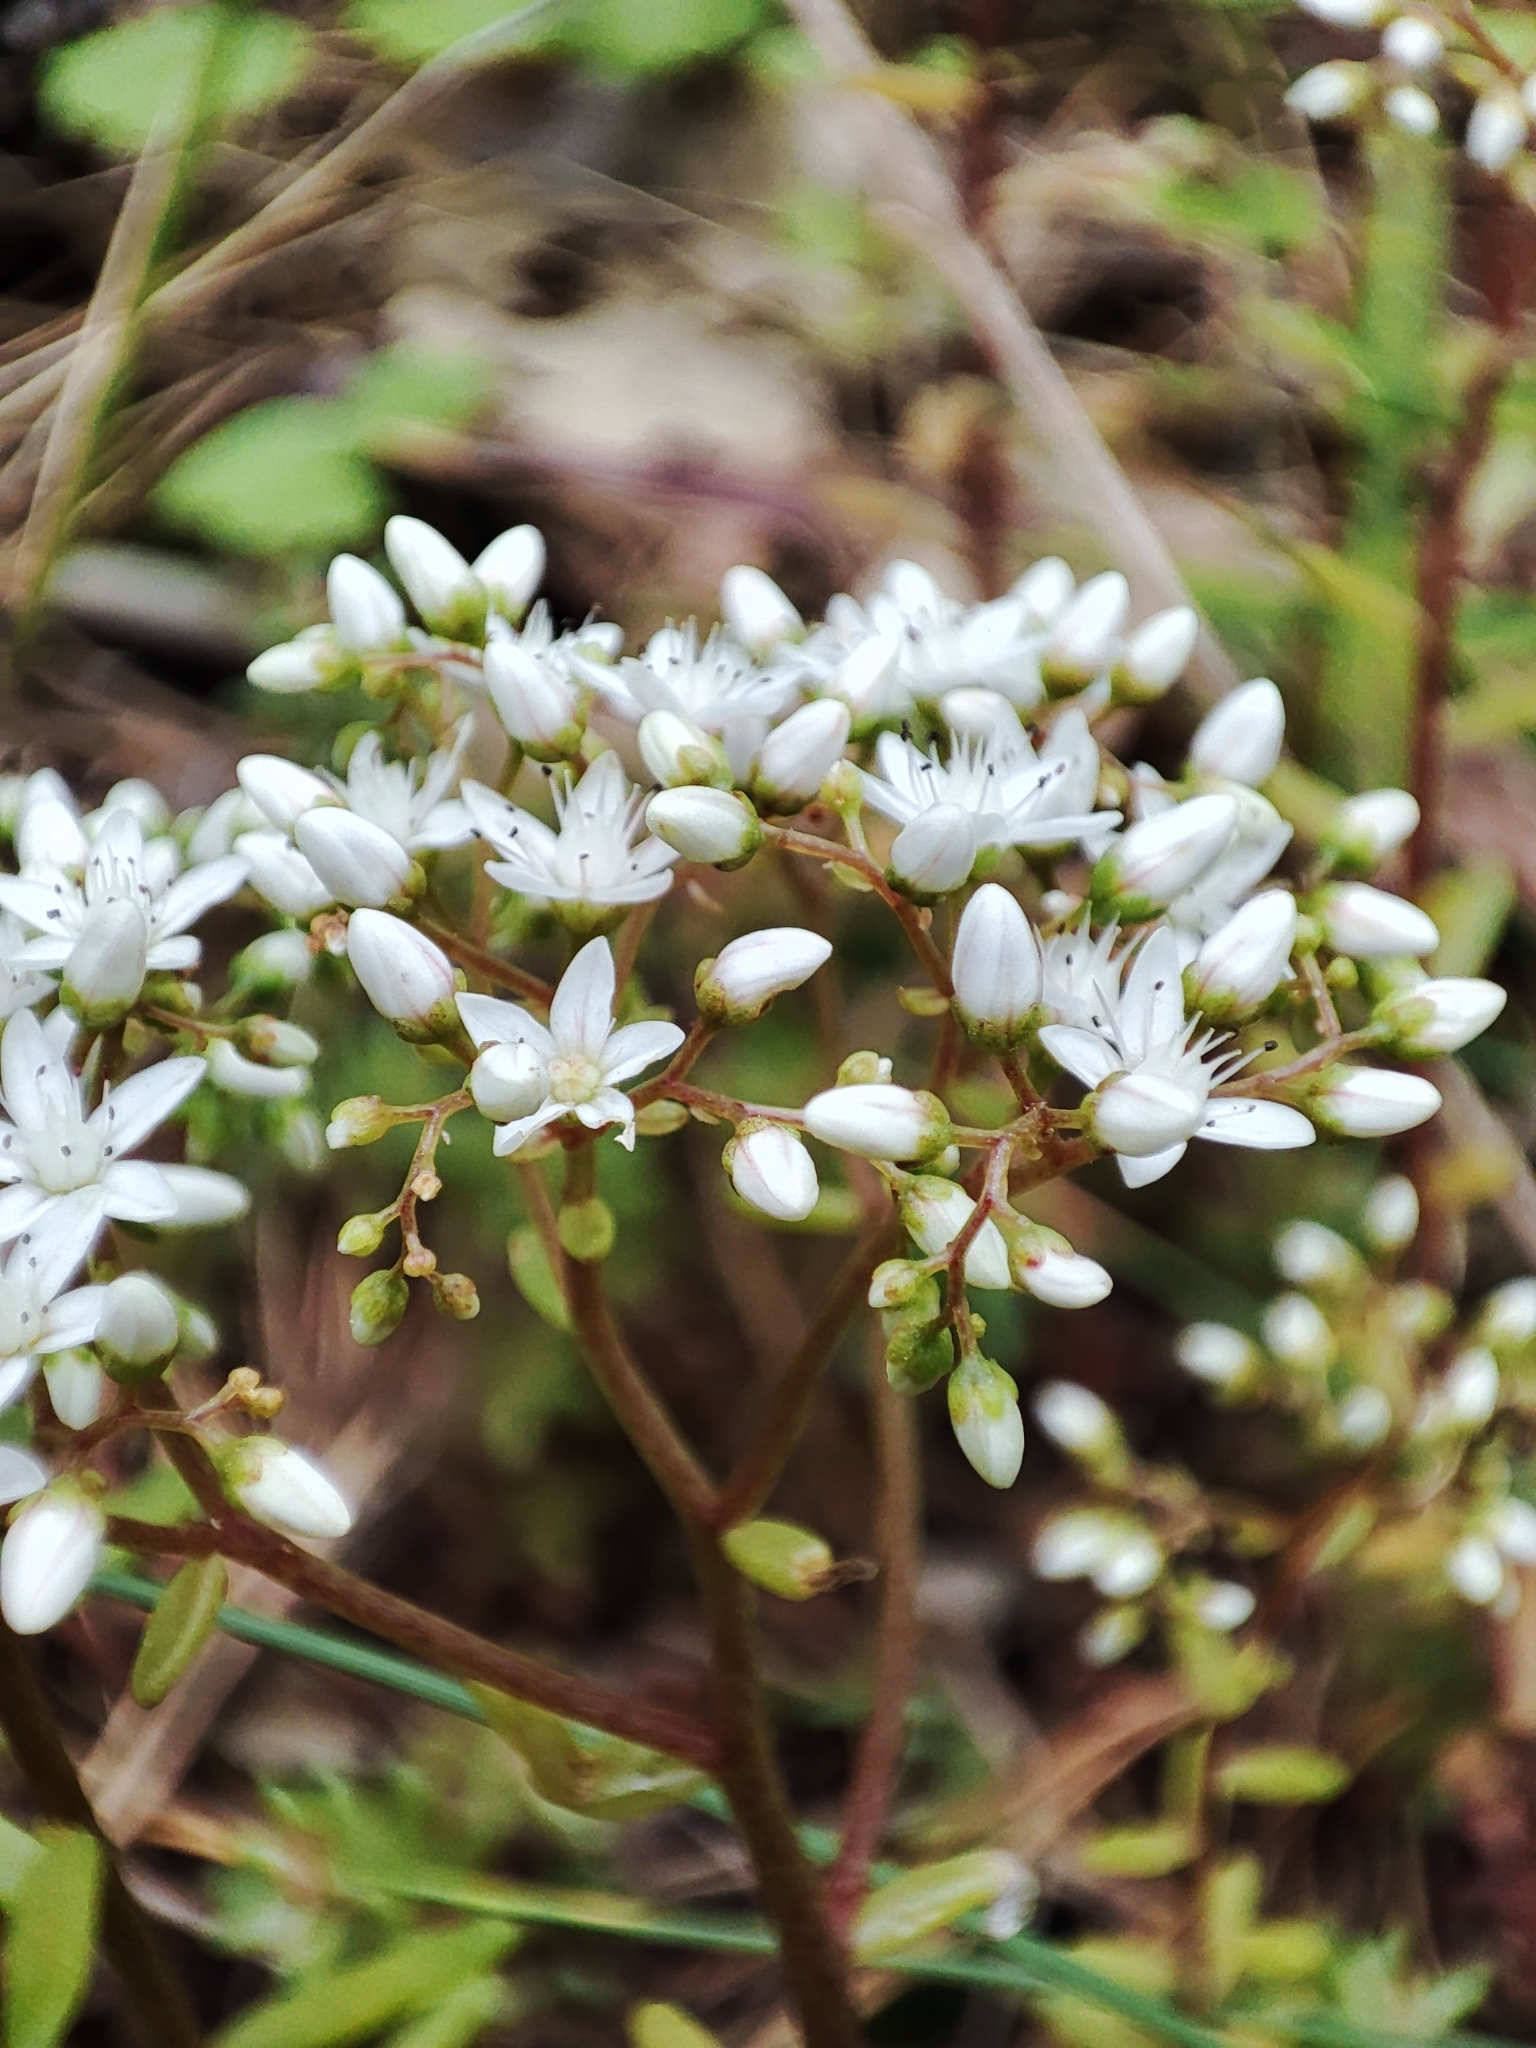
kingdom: Plantae
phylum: Tracheophyta
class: Magnoliopsida
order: Saxifragales
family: Crassulaceae
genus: Sedum
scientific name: Sedum album
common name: White stonecrop
